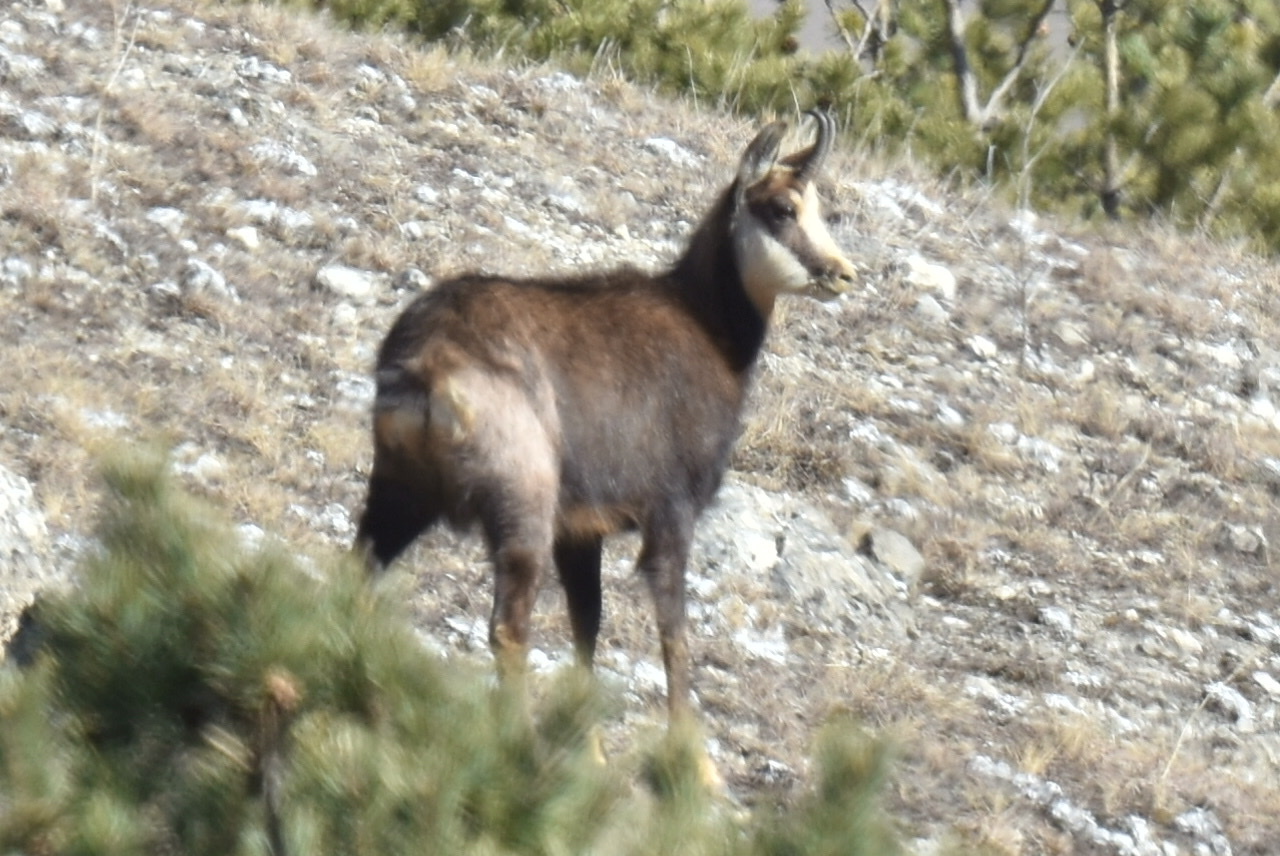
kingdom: Animalia
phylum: Chordata
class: Mammalia
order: Artiodactyla
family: Bovidae
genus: Rupicapra
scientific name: Rupicapra rupicapra
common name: Chamois
